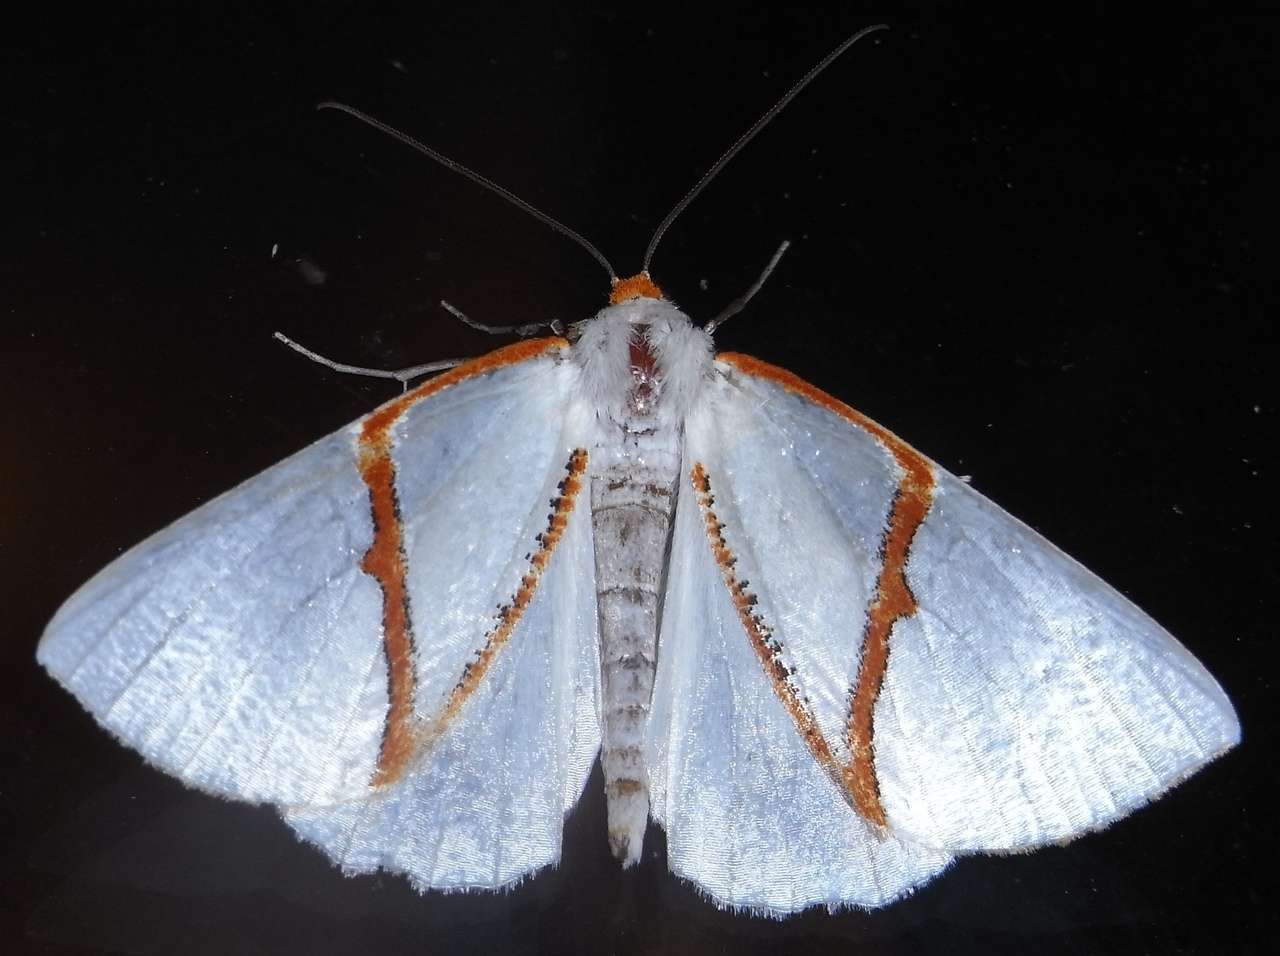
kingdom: Animalia
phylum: Arthropoda
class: Insecta
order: Lepidoptera
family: Geometridae
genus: Thalaina
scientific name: Thalaina selenaea
